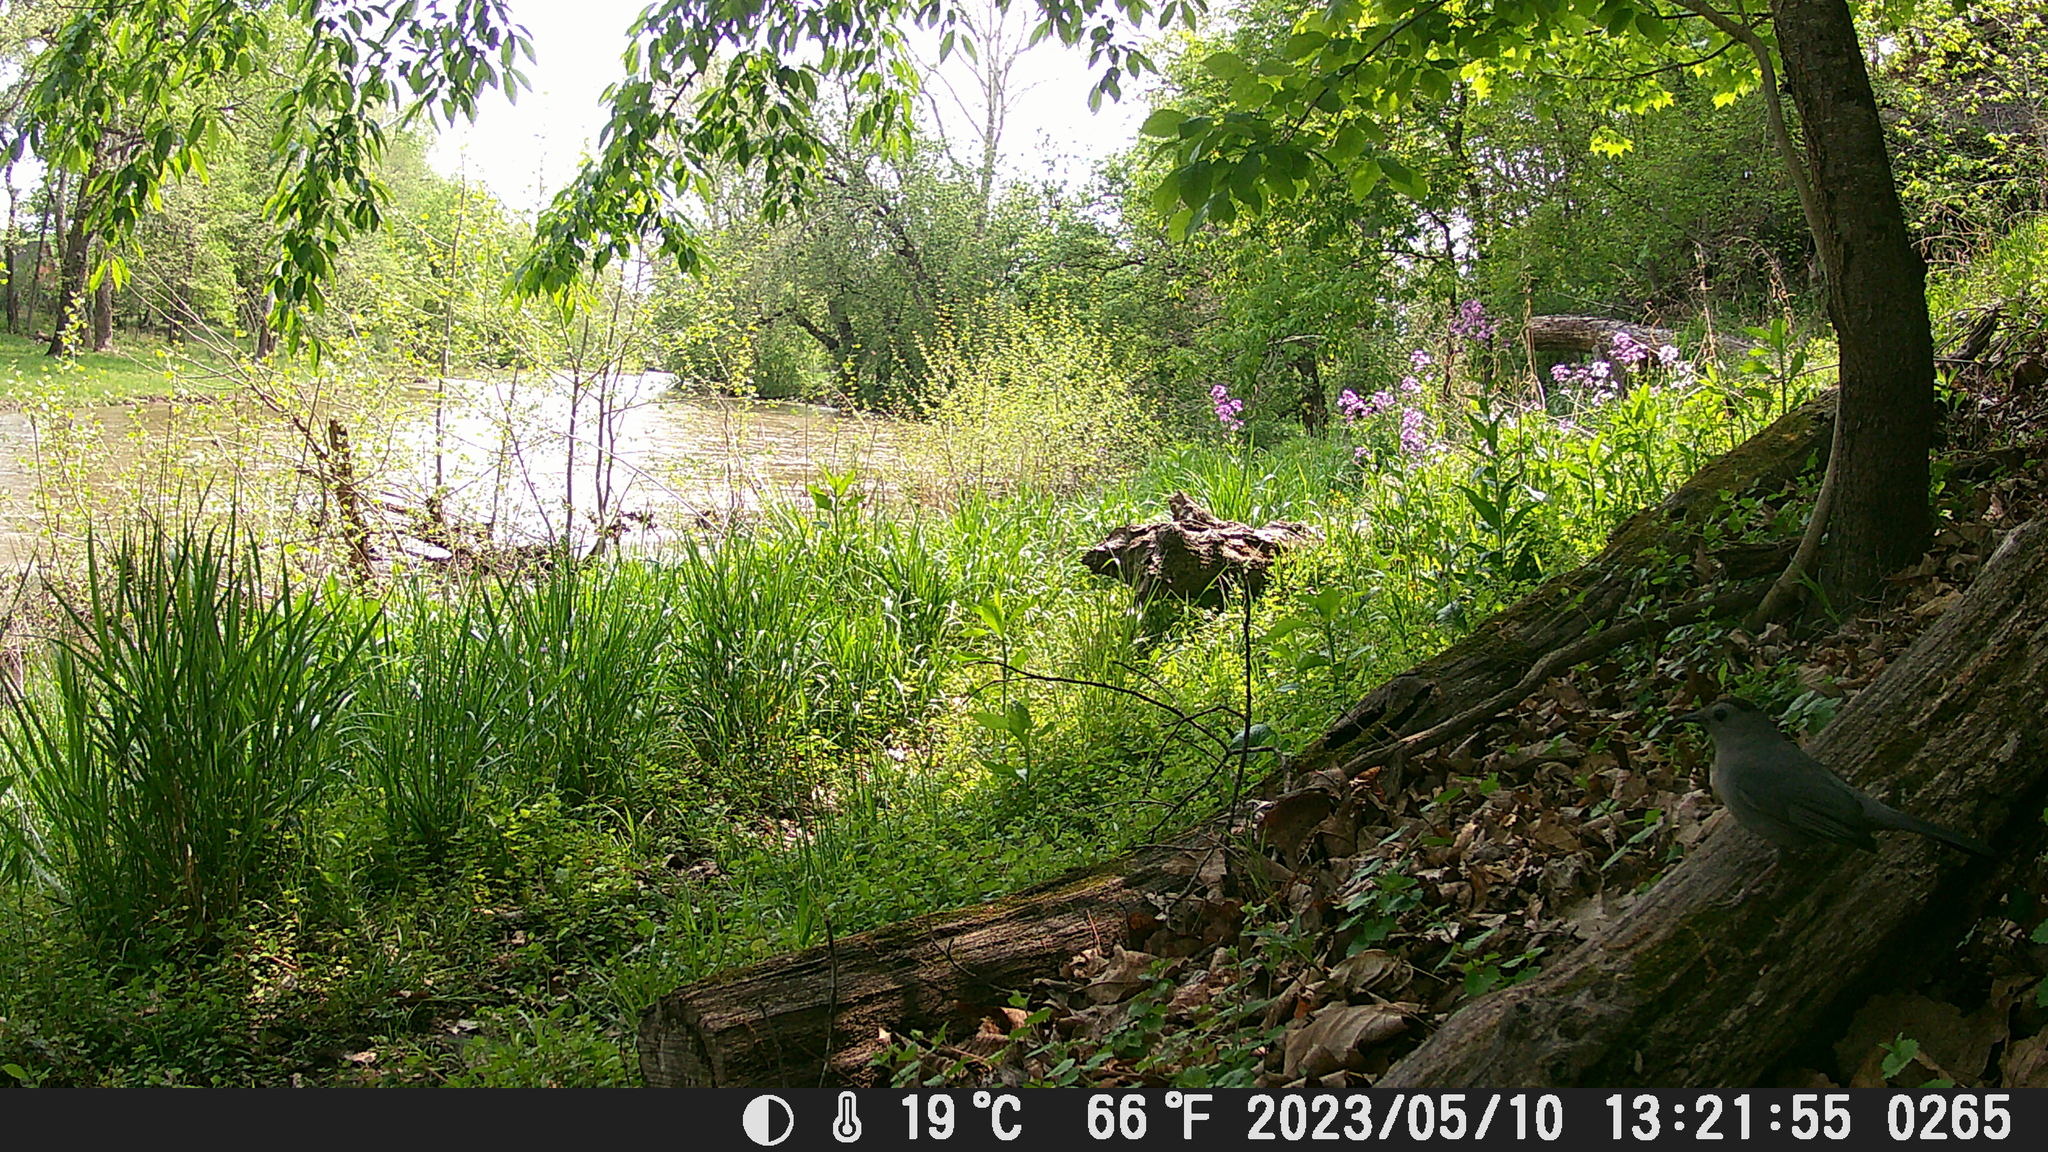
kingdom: Animalia
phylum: Chordata
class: Aves
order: Passeriformes
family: Mimidae
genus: Dumetella
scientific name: Dumetella carolinensis
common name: Gray catbird
